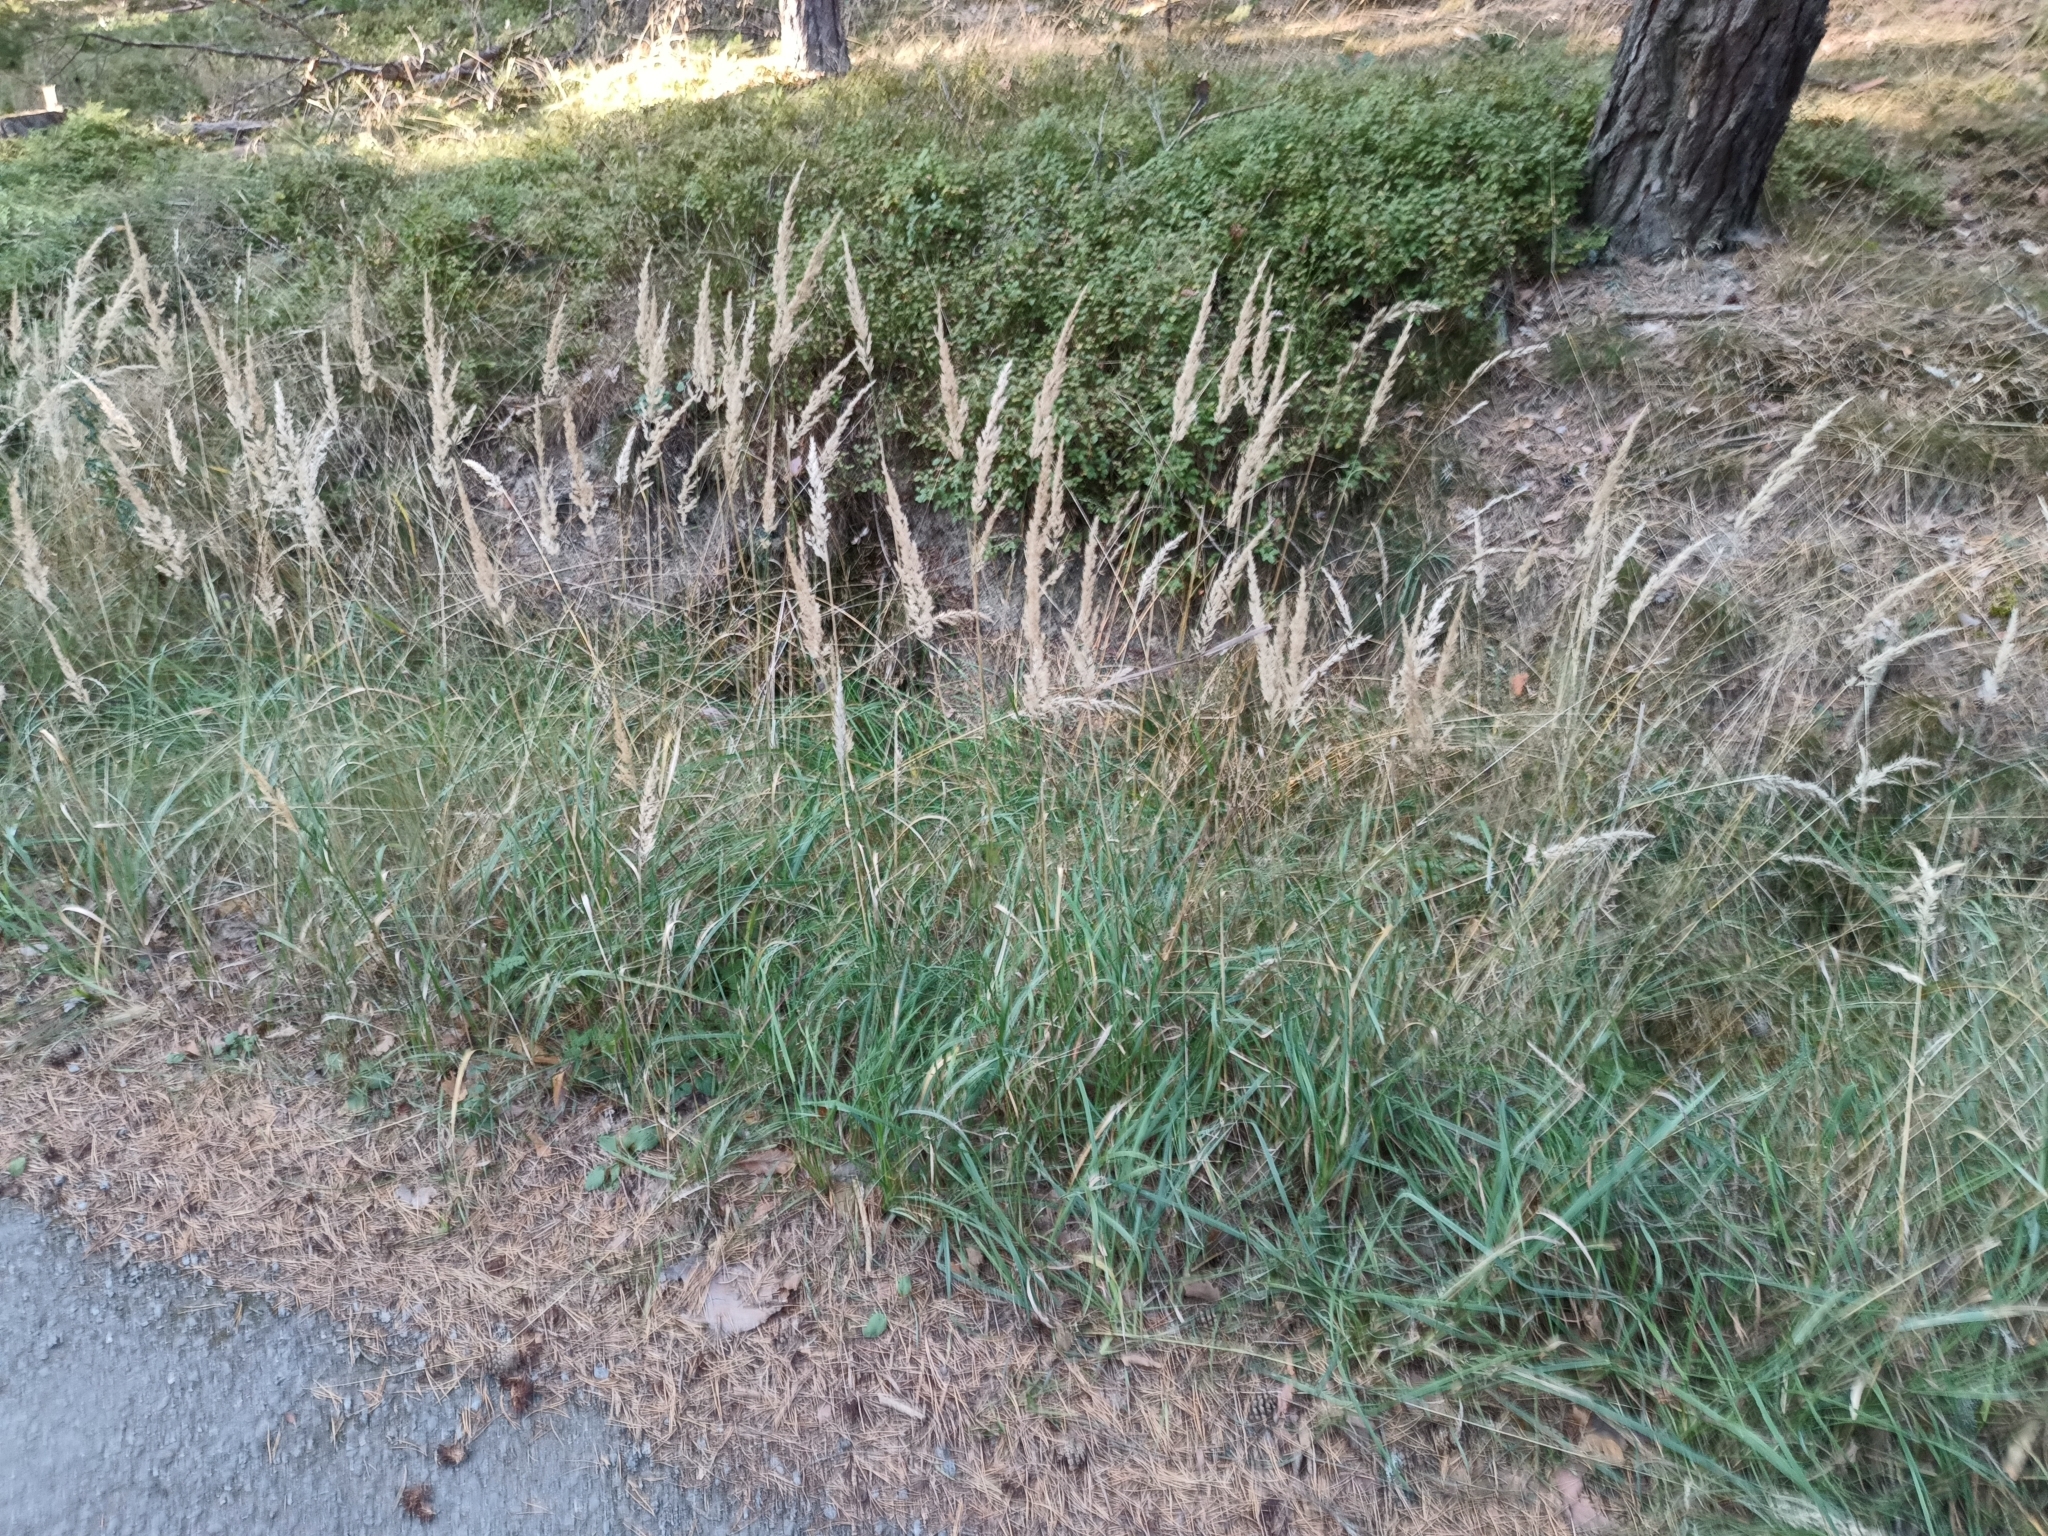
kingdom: Plantae
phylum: Tracheophyta
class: Liliopsida
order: Poales
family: Poaceae
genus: Calamagrostis
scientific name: Calamagrostis epigejos
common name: Wood small-reed
